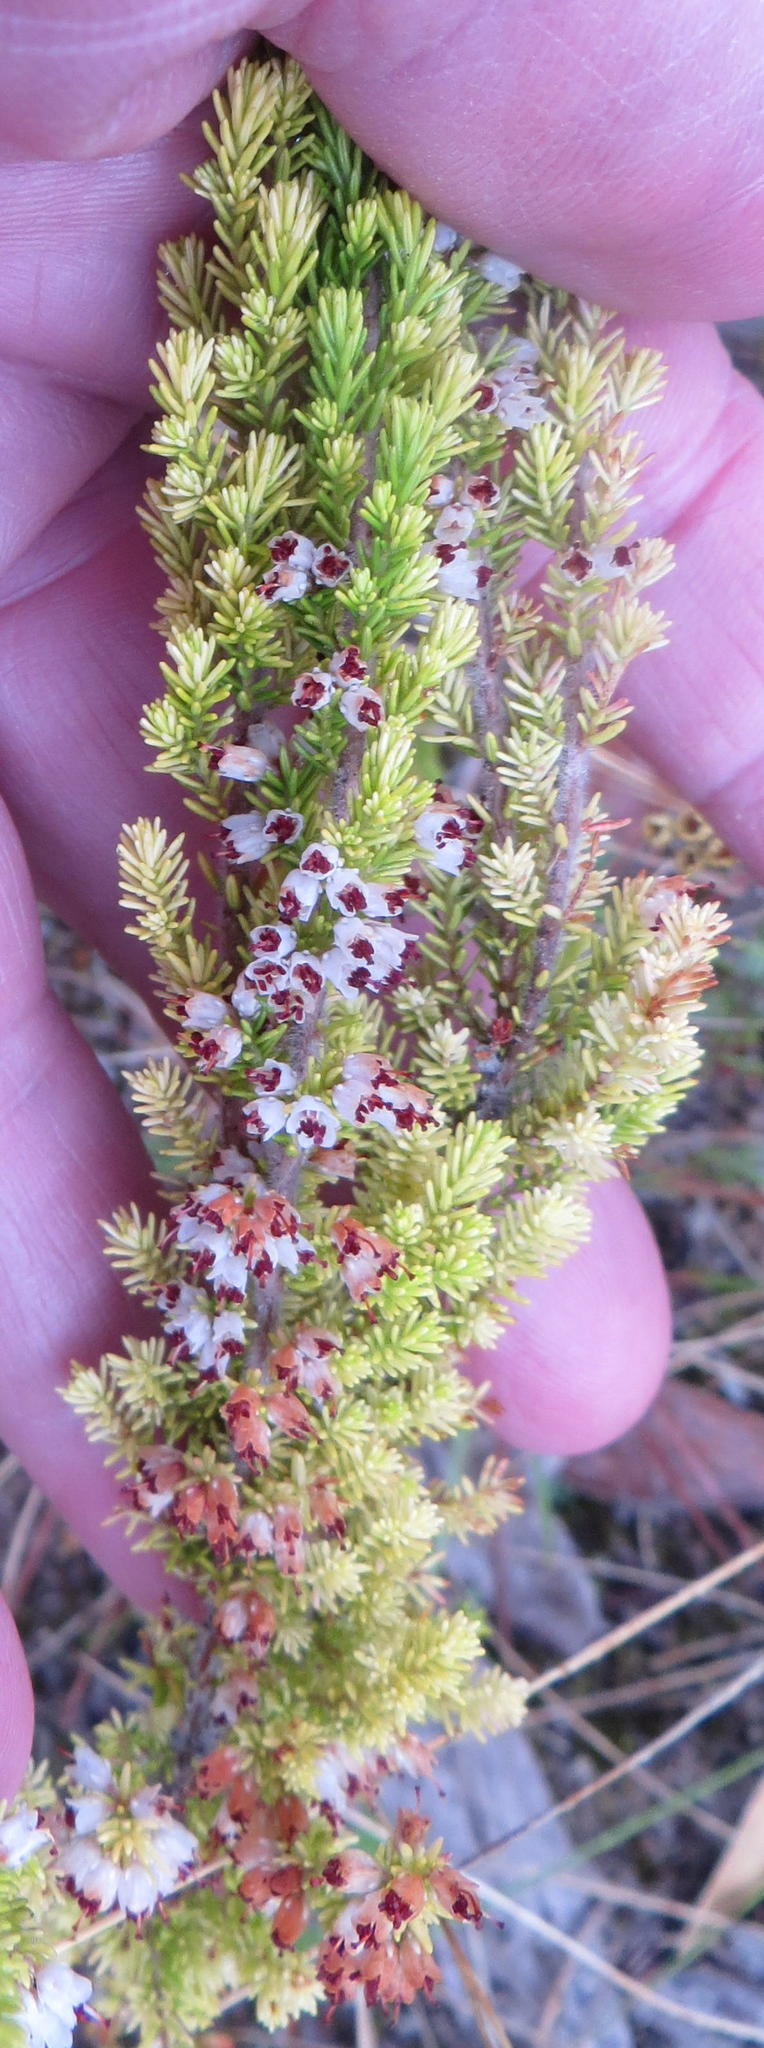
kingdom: Plantae
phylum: Tracheophyta
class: Magnoliopsida
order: Ericales
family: Ericaceae
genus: Erica
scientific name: Erica opulenta
